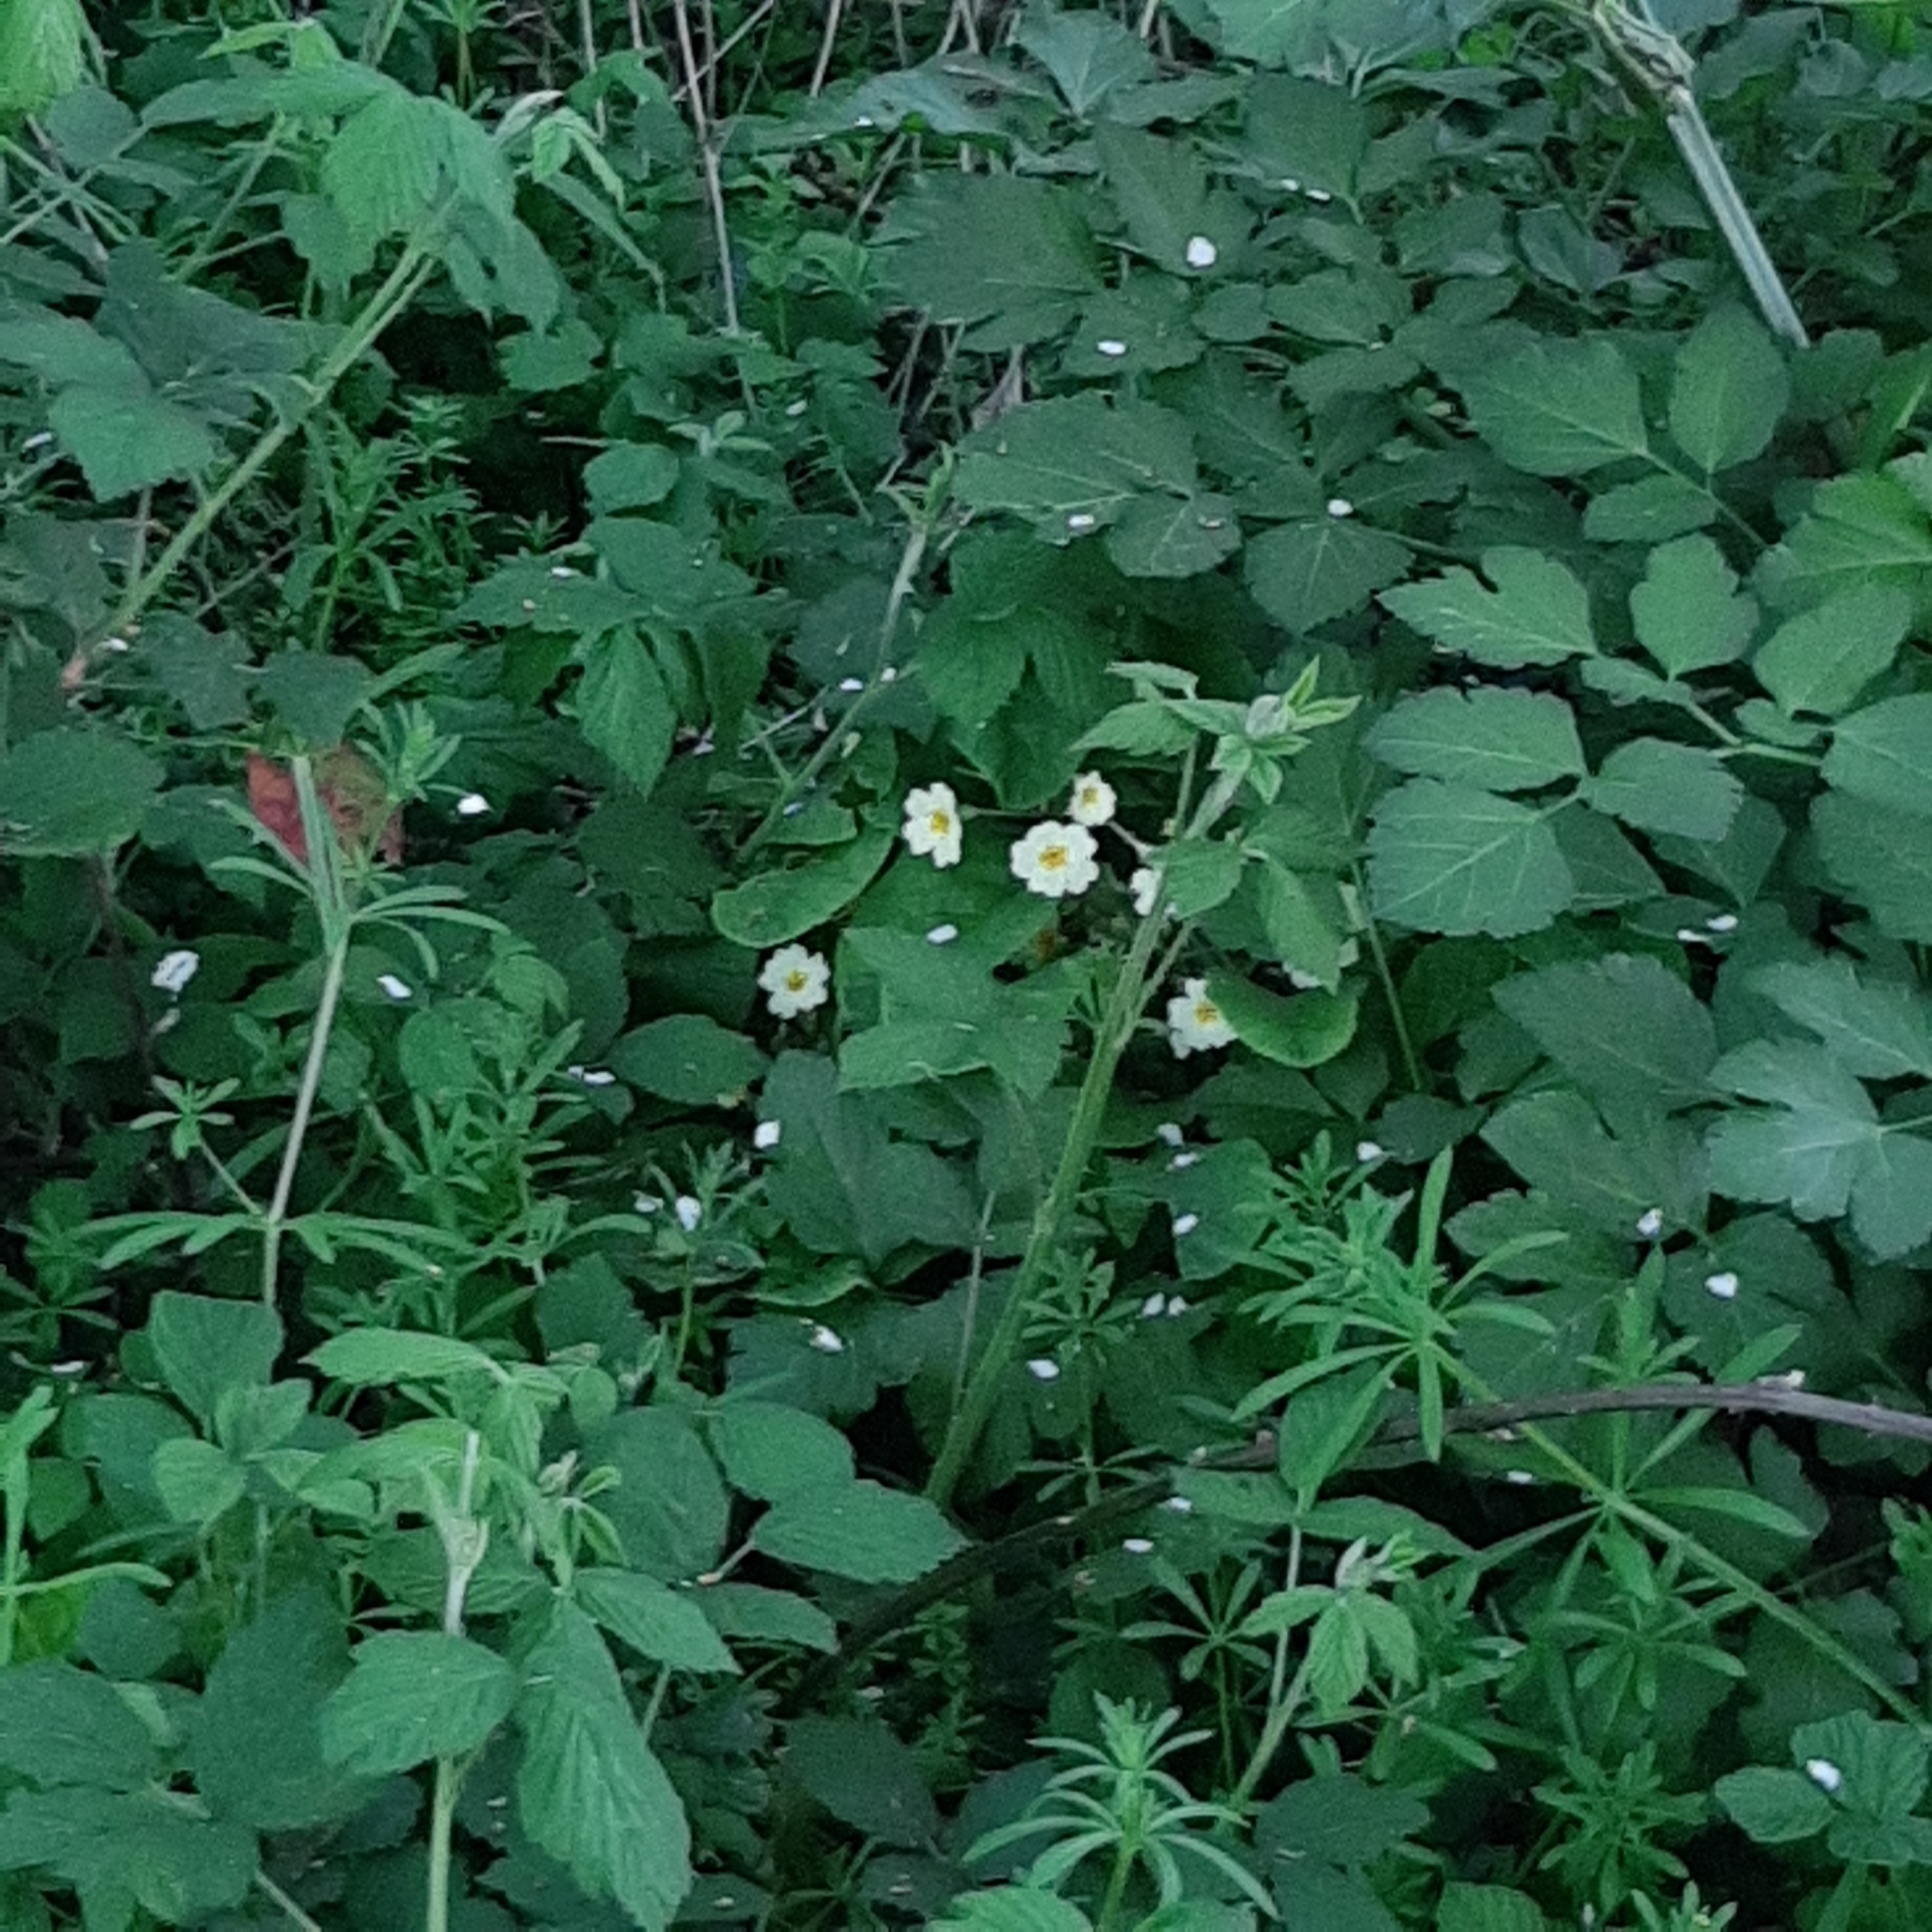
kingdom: Plantae
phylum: Tracheophyta
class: Magnoliopsida
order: Ericales
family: Primulaceae
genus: Primula
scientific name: Primula vulgaris
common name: Primrose
